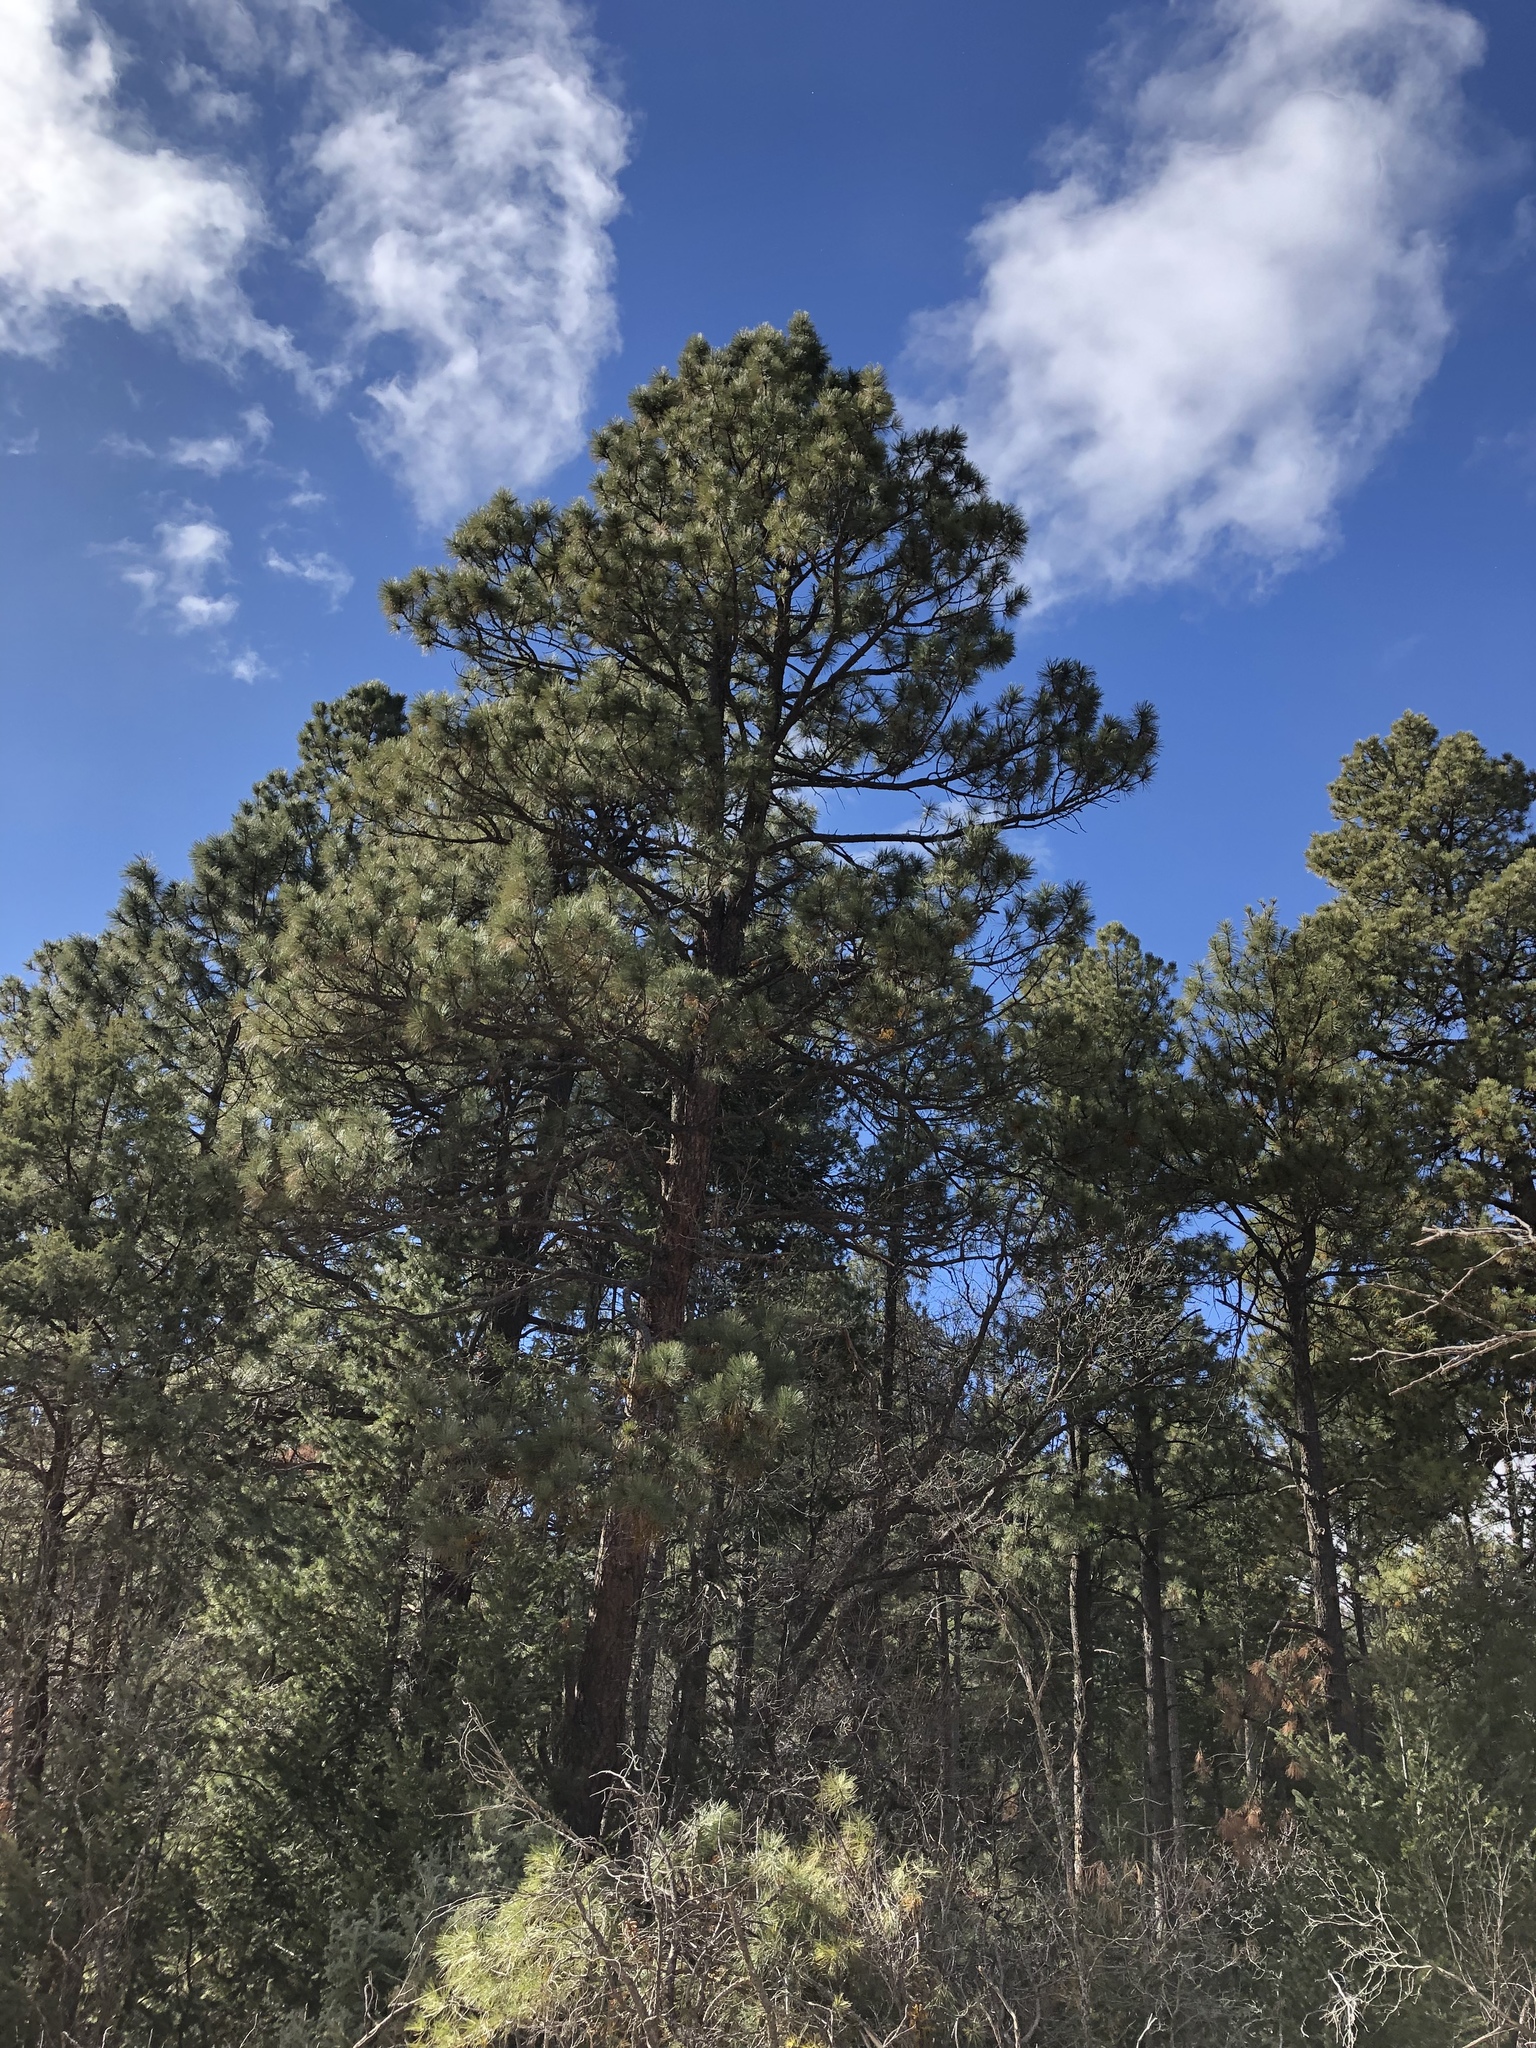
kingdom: Plantae
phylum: Tracheophyta
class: Pinopsida
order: Pinales
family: Pinaceae
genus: Pinus
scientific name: Pinus ponderosa
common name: Western yellow-pine
